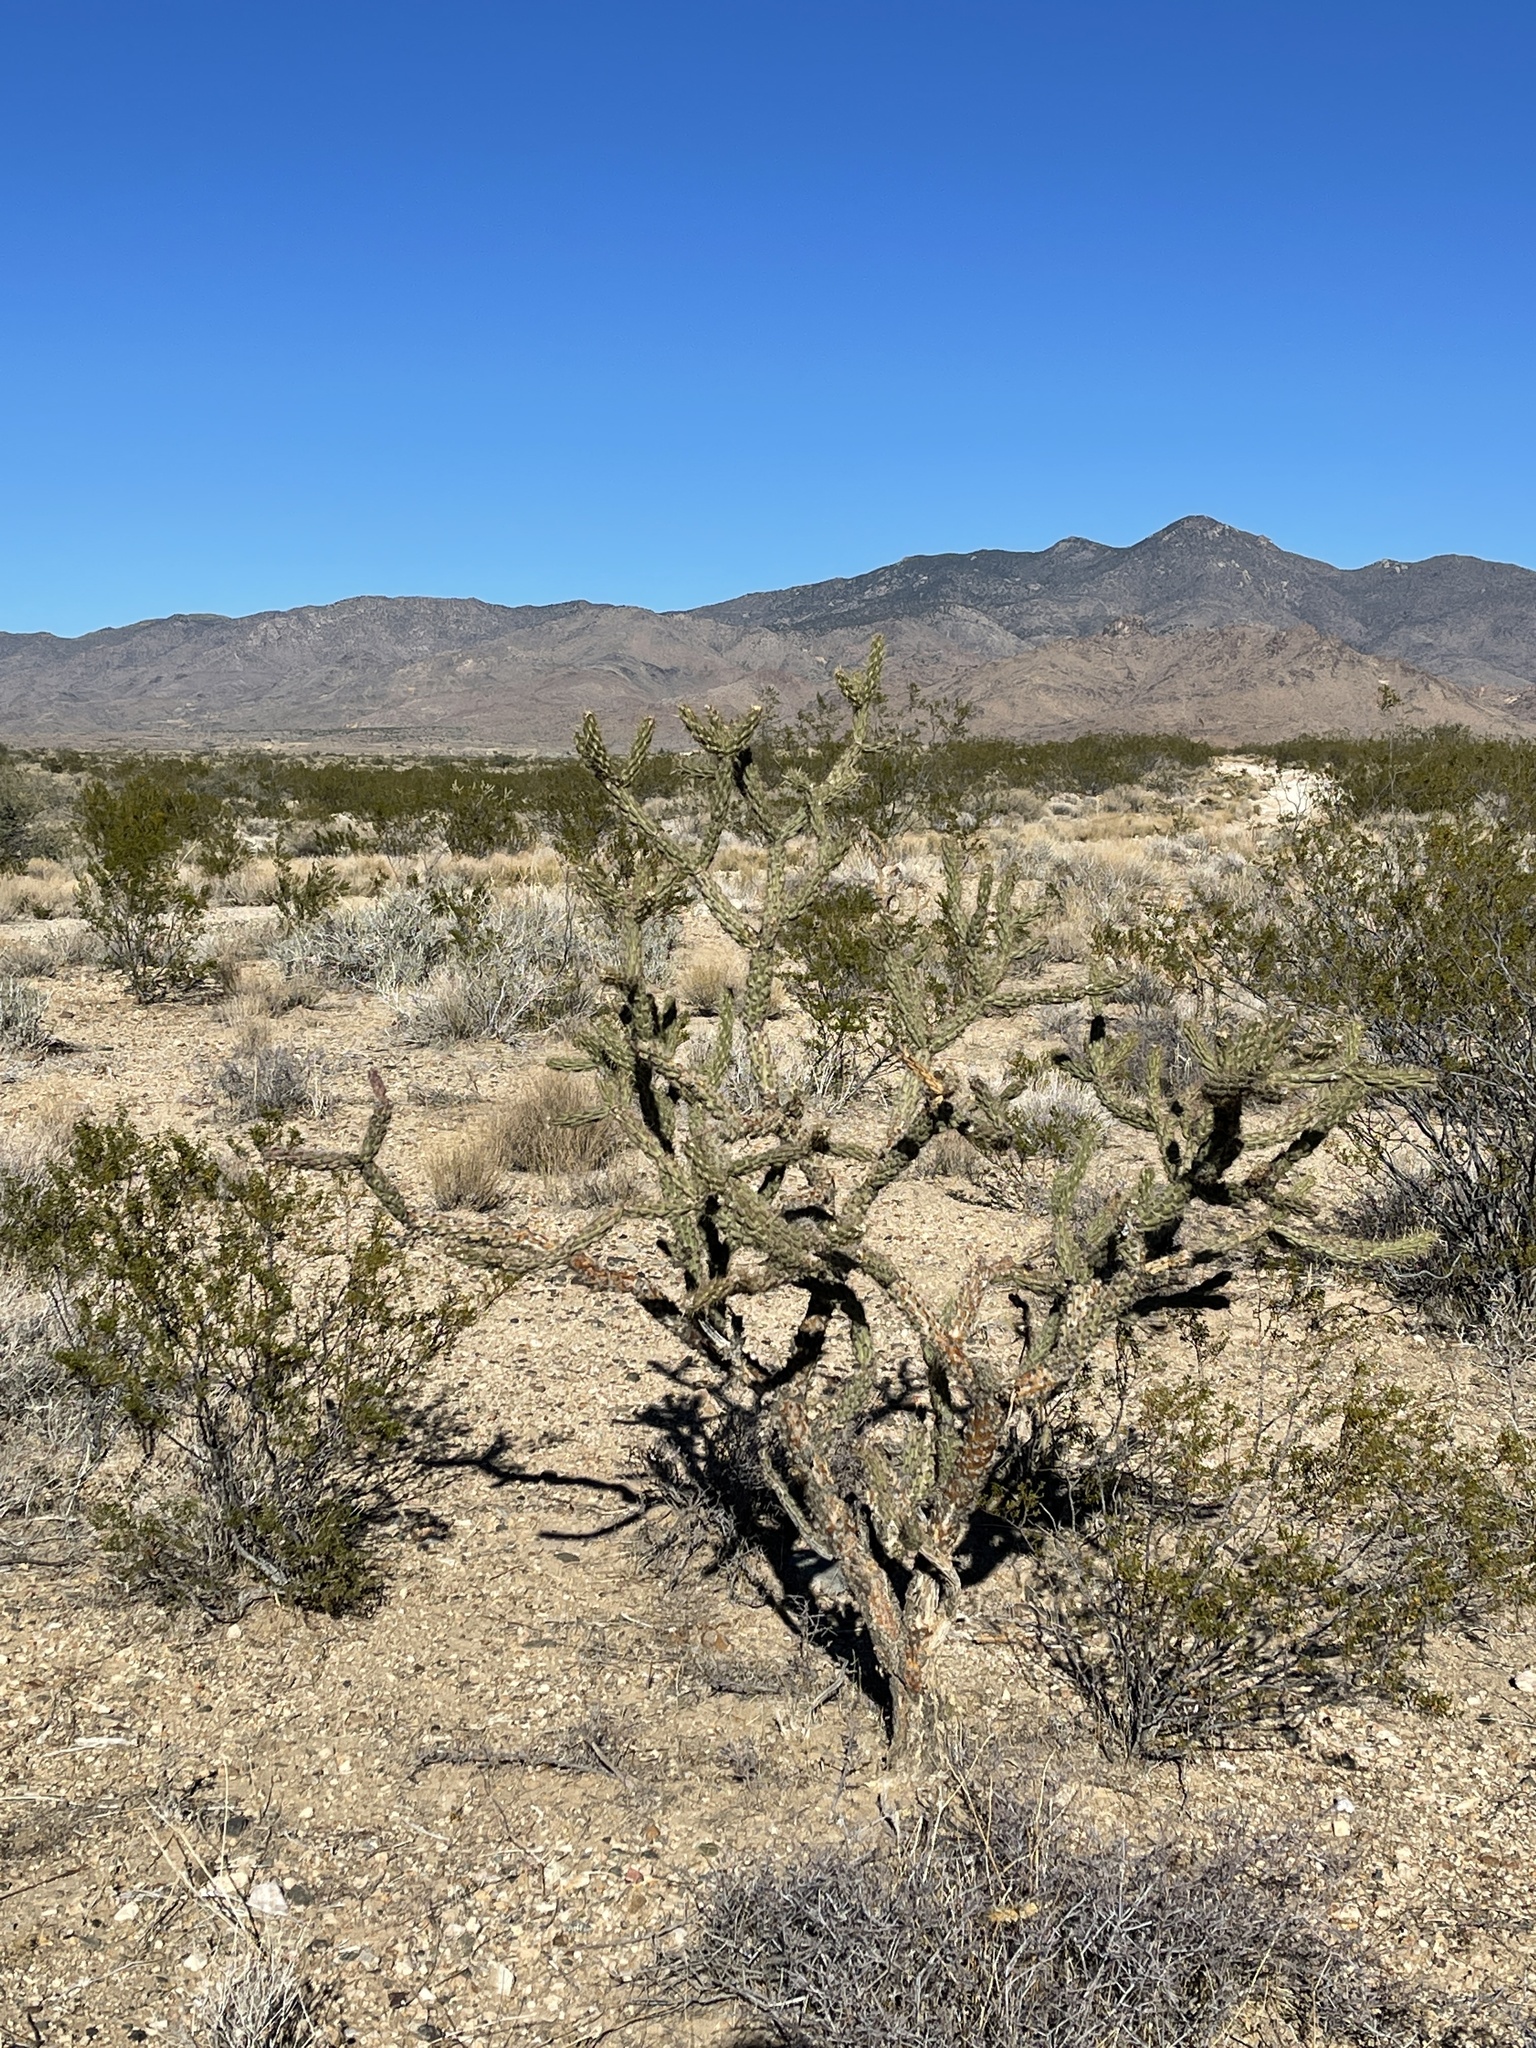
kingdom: Plantae
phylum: Tracheophyta
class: Magnoliopsida
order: Caryophyllales
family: Cactaceae
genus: Cylindropuntia
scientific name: Cylindropuntia acanthocarpa
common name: Buckhorn cholla
